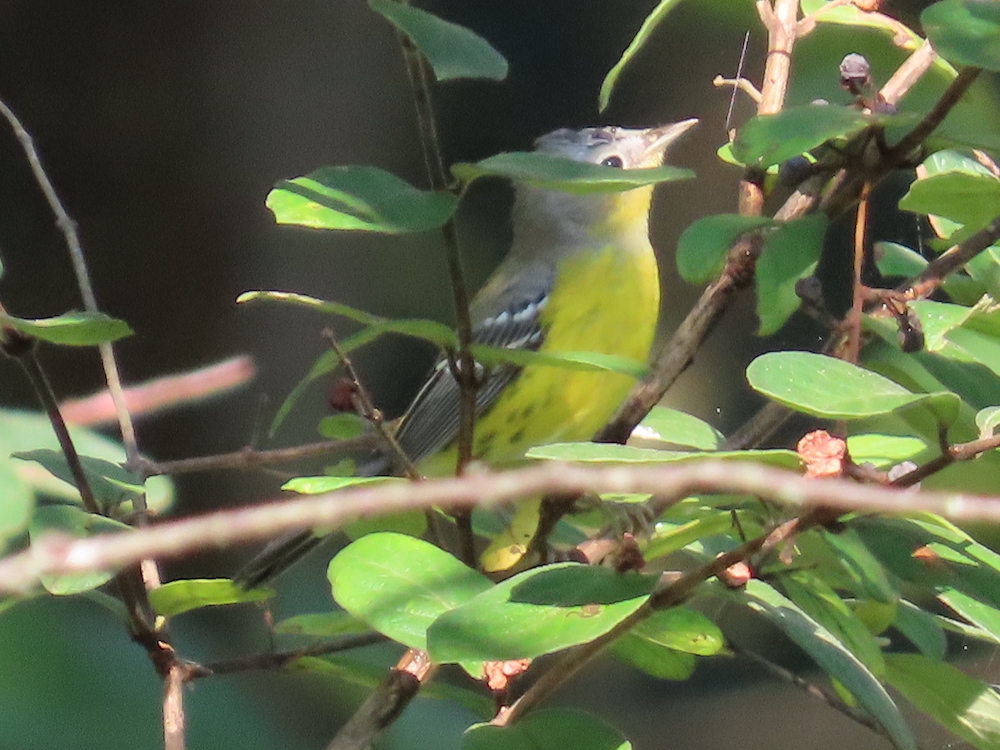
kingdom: Animalia
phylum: Chordata
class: Aves
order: Passeriformes
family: Parulidae
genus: Setophaga
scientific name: Setophaga magnolia
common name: Magnolia warbler
